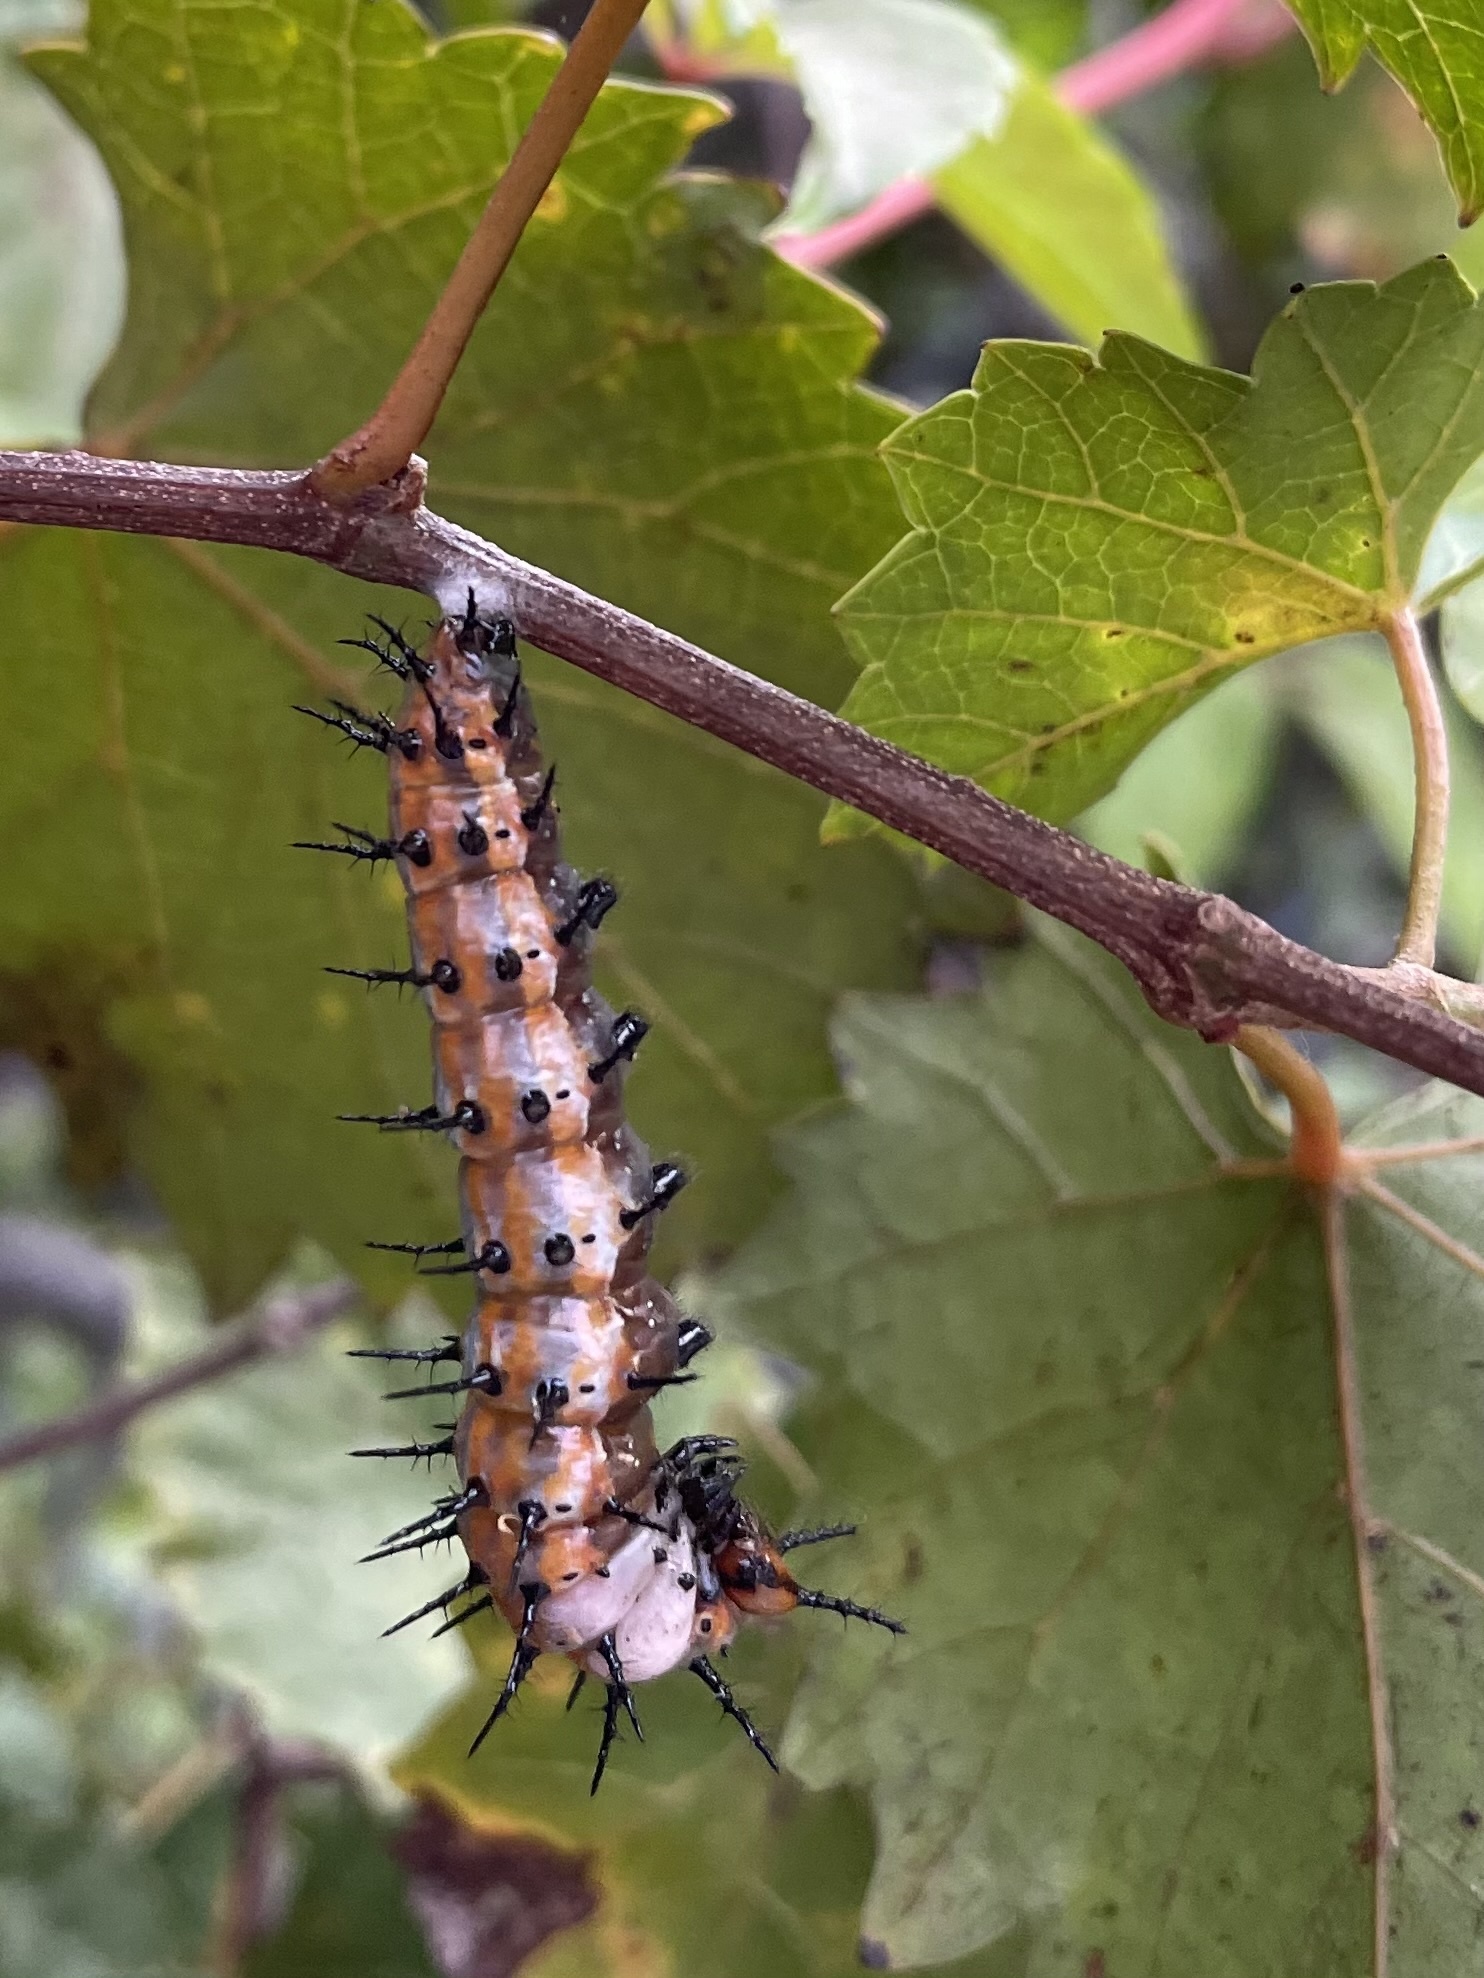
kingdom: Animalia
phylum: Arthropoda
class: Insecta
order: Lepidoptera
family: Nymphalidae
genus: Dione
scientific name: Dione vanillae
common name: Gulf fritillary
